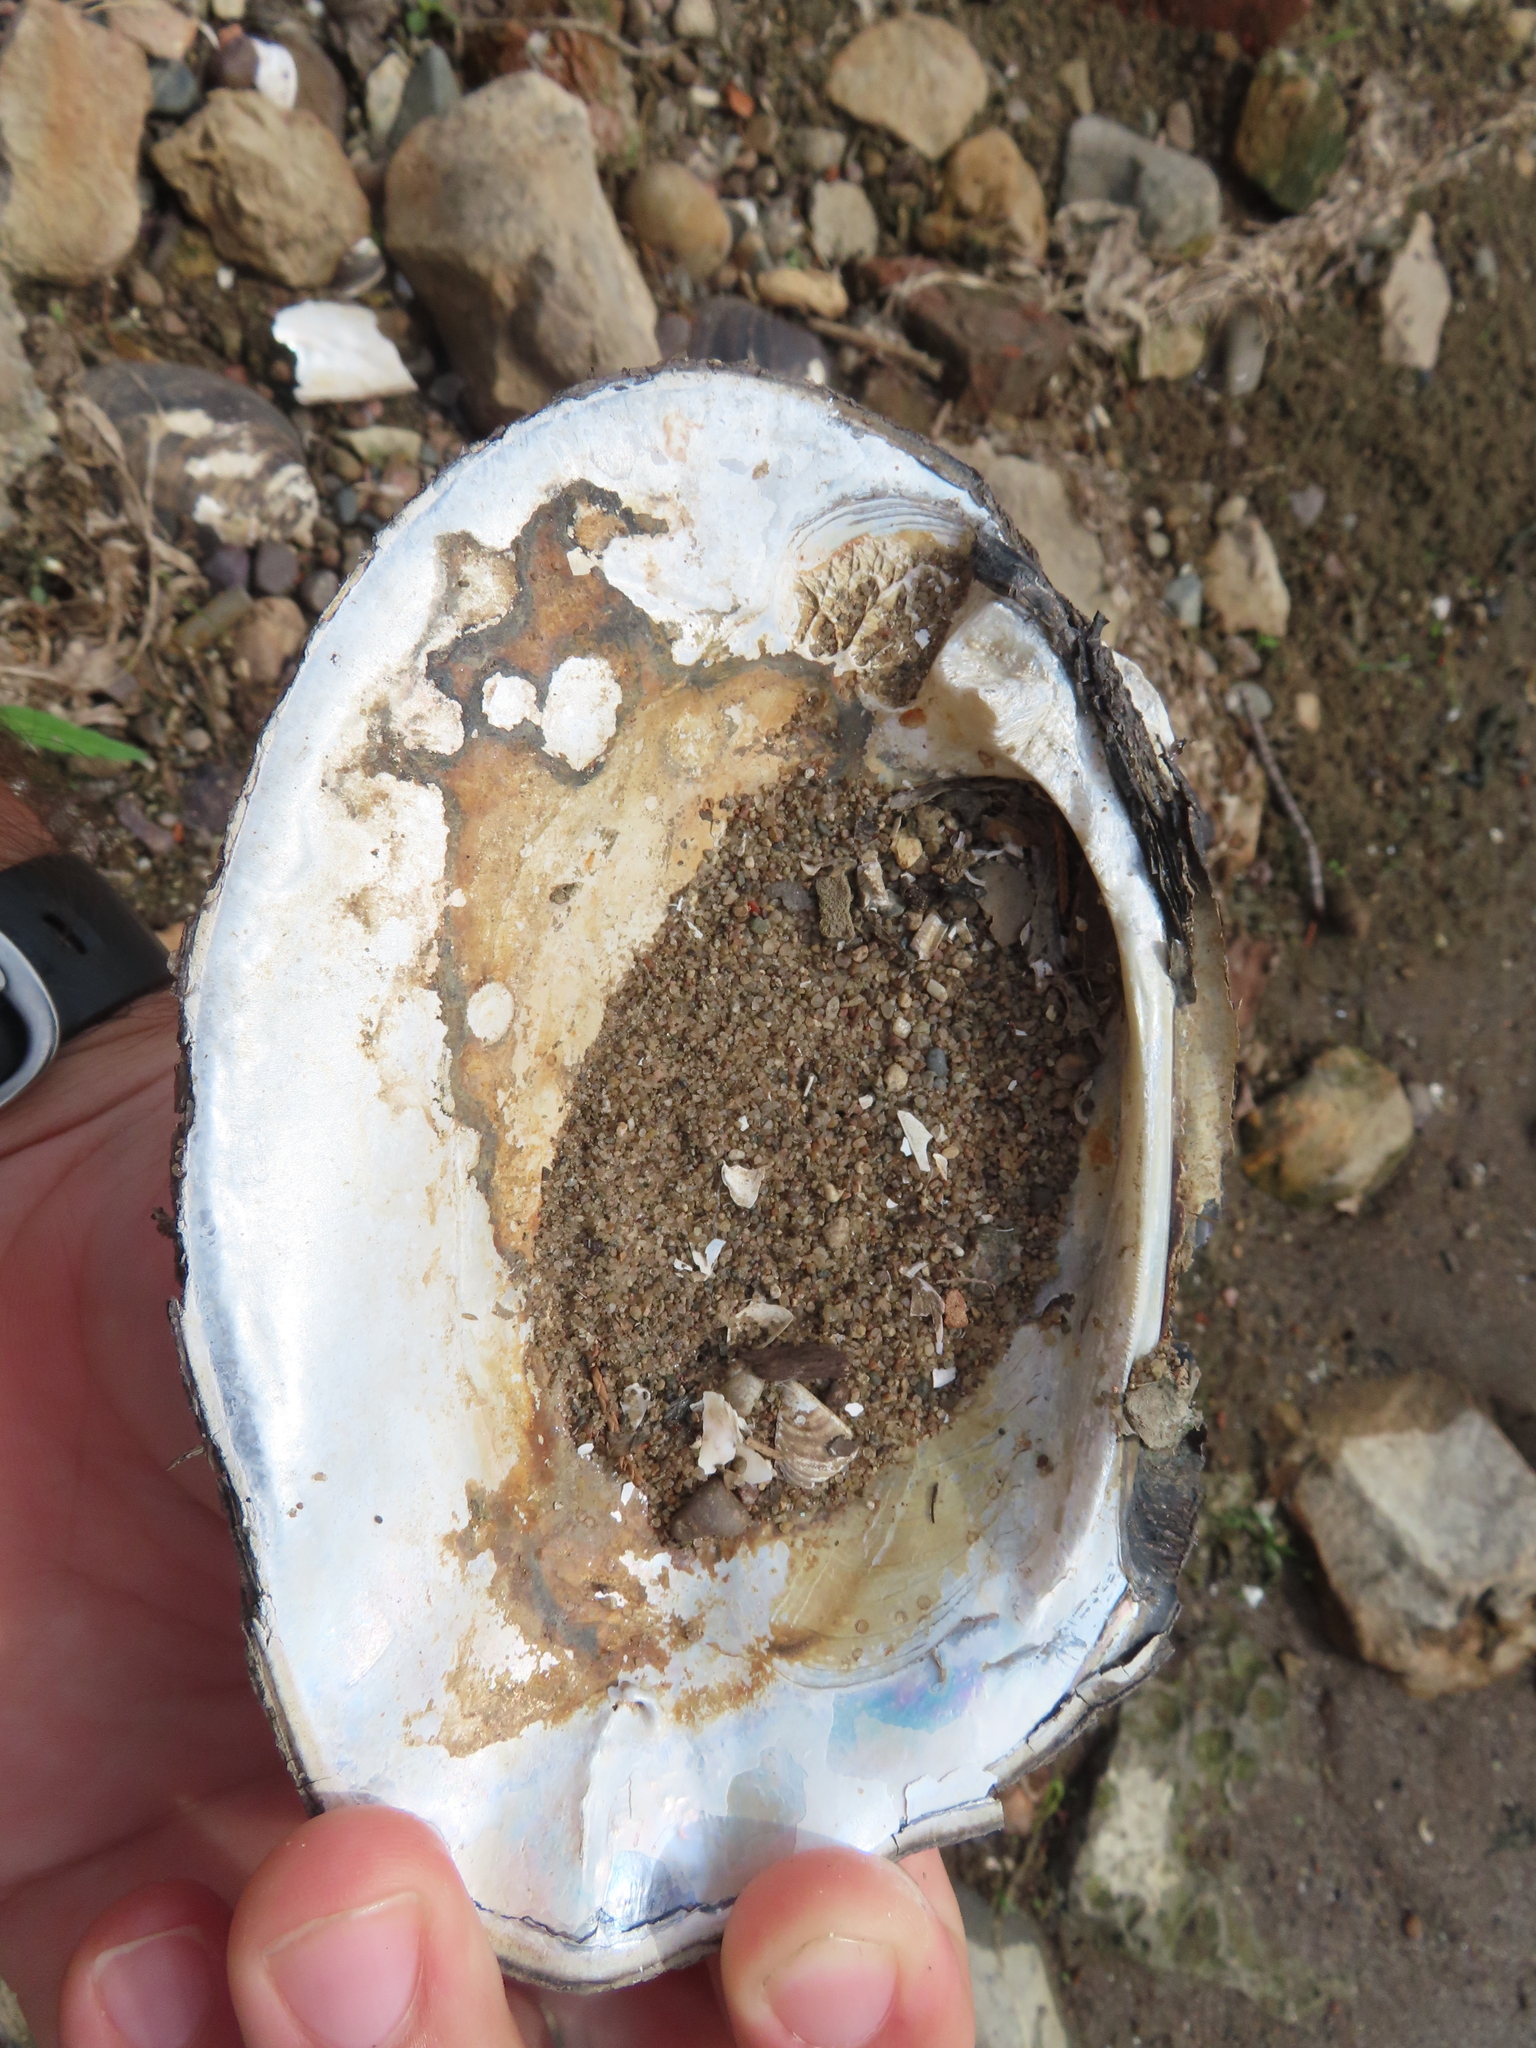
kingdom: Animalia
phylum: Mollusca
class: Bivalvia
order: Unionida
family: Unionidae
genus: Megalonaias
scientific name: Megalonaias nervosa
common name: Washboard
